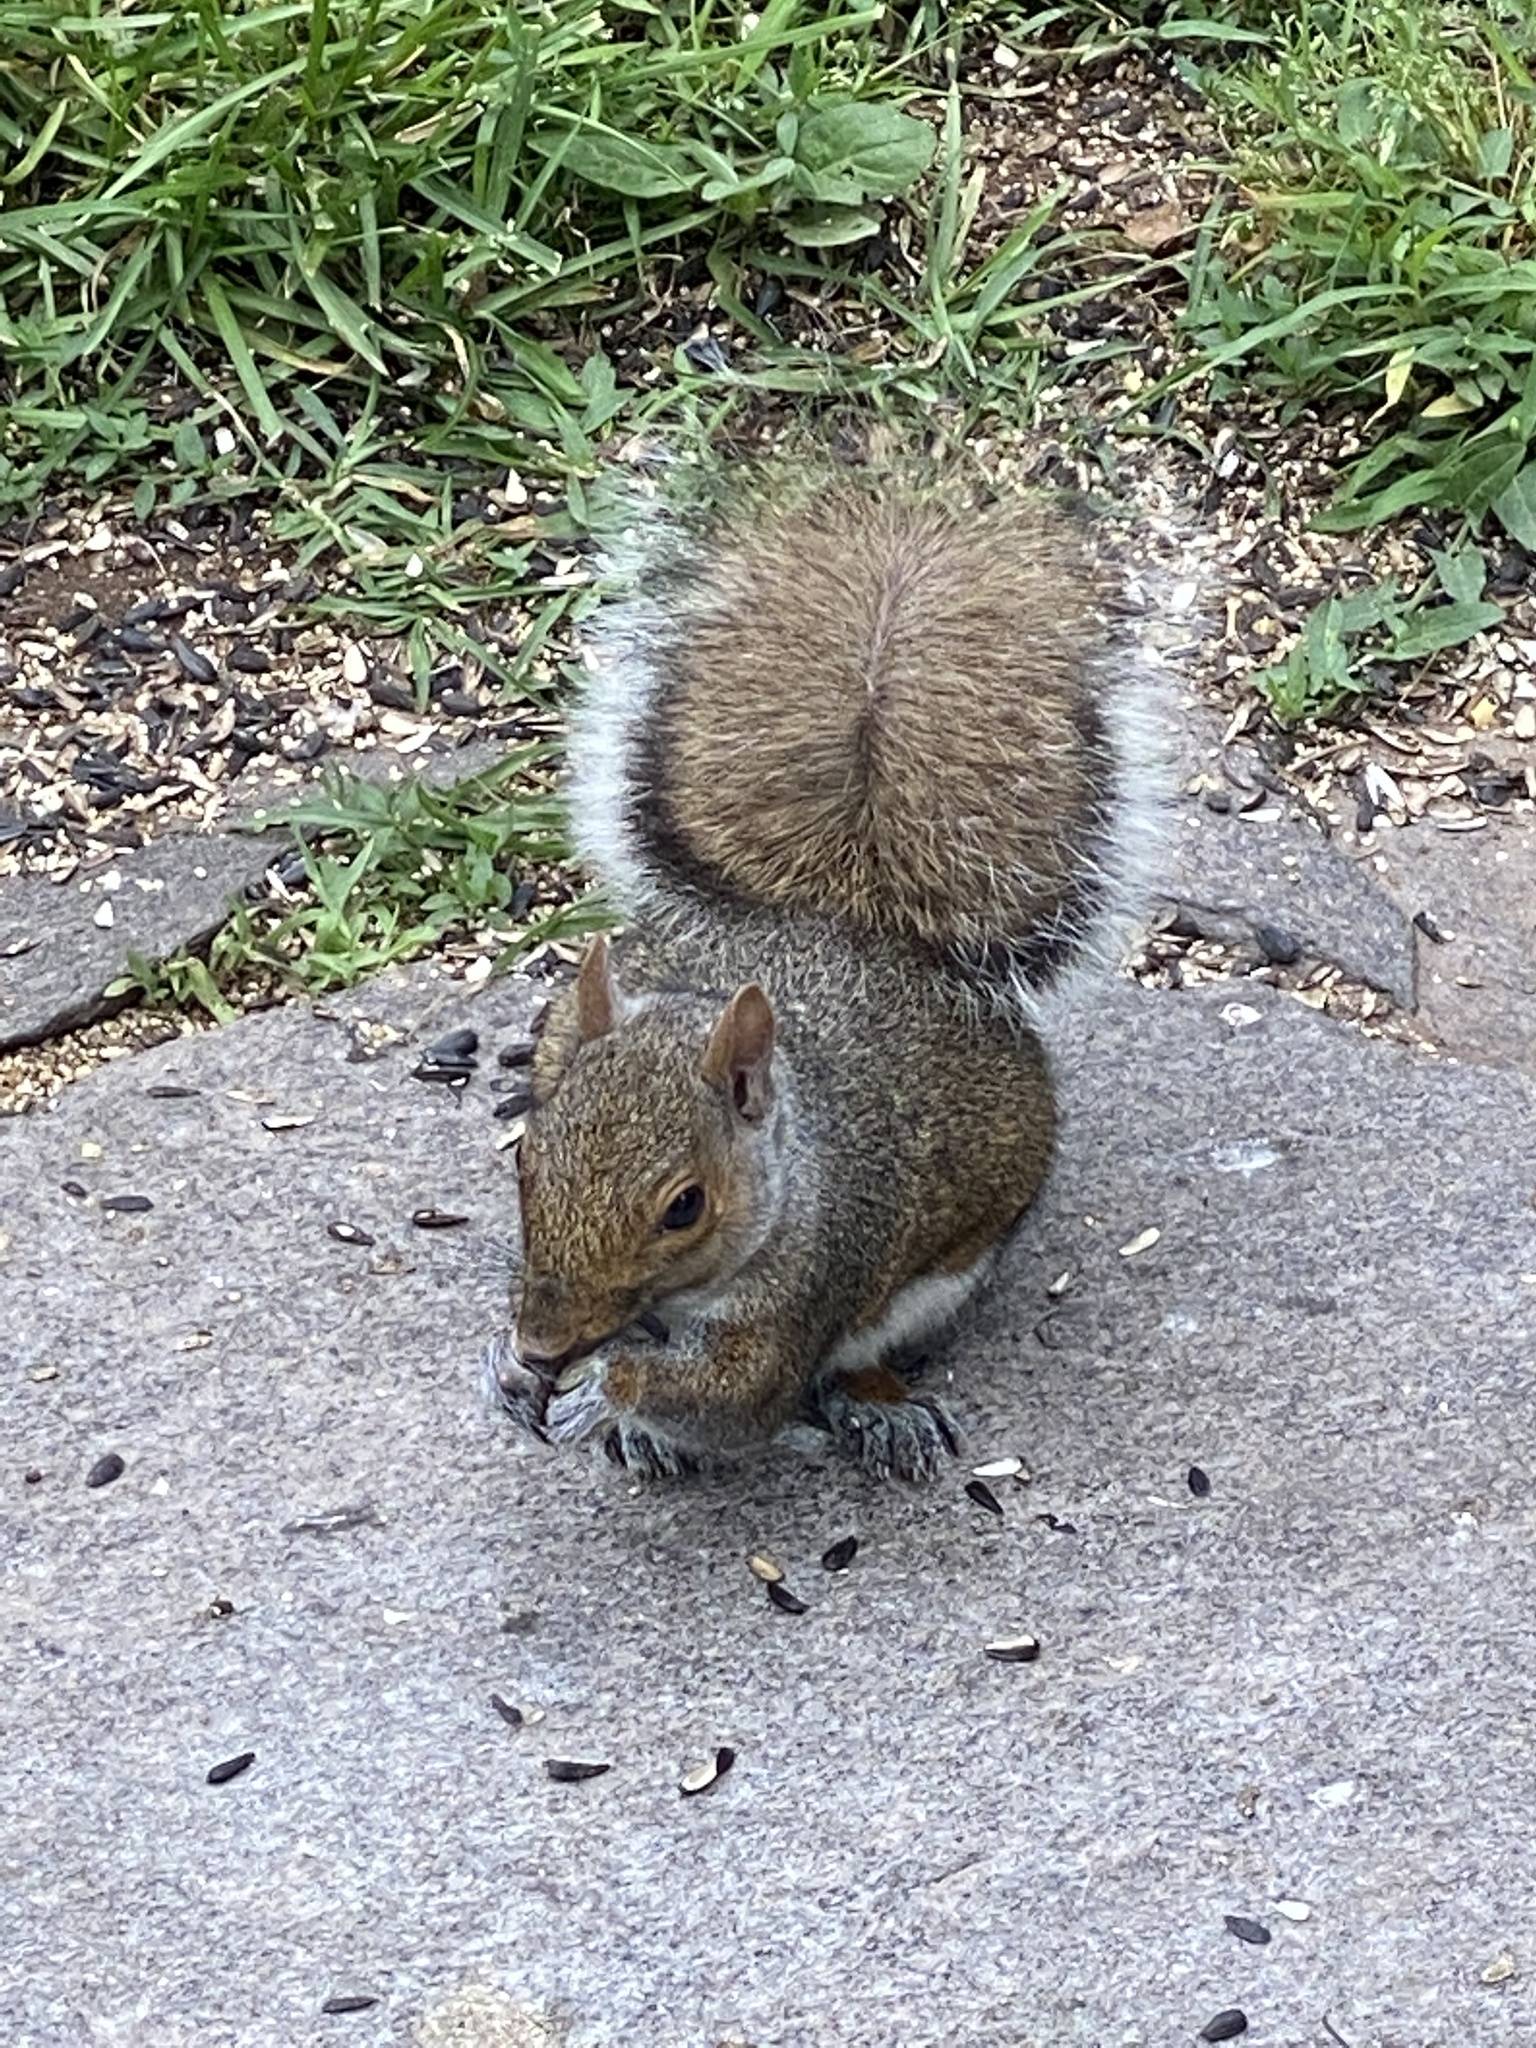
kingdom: Animalia
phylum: Chordata
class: Mammalia
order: Rodentia
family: Sciuridae
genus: Sciurus
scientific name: Sciurus carolinensis
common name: Eastern gray squirrel
